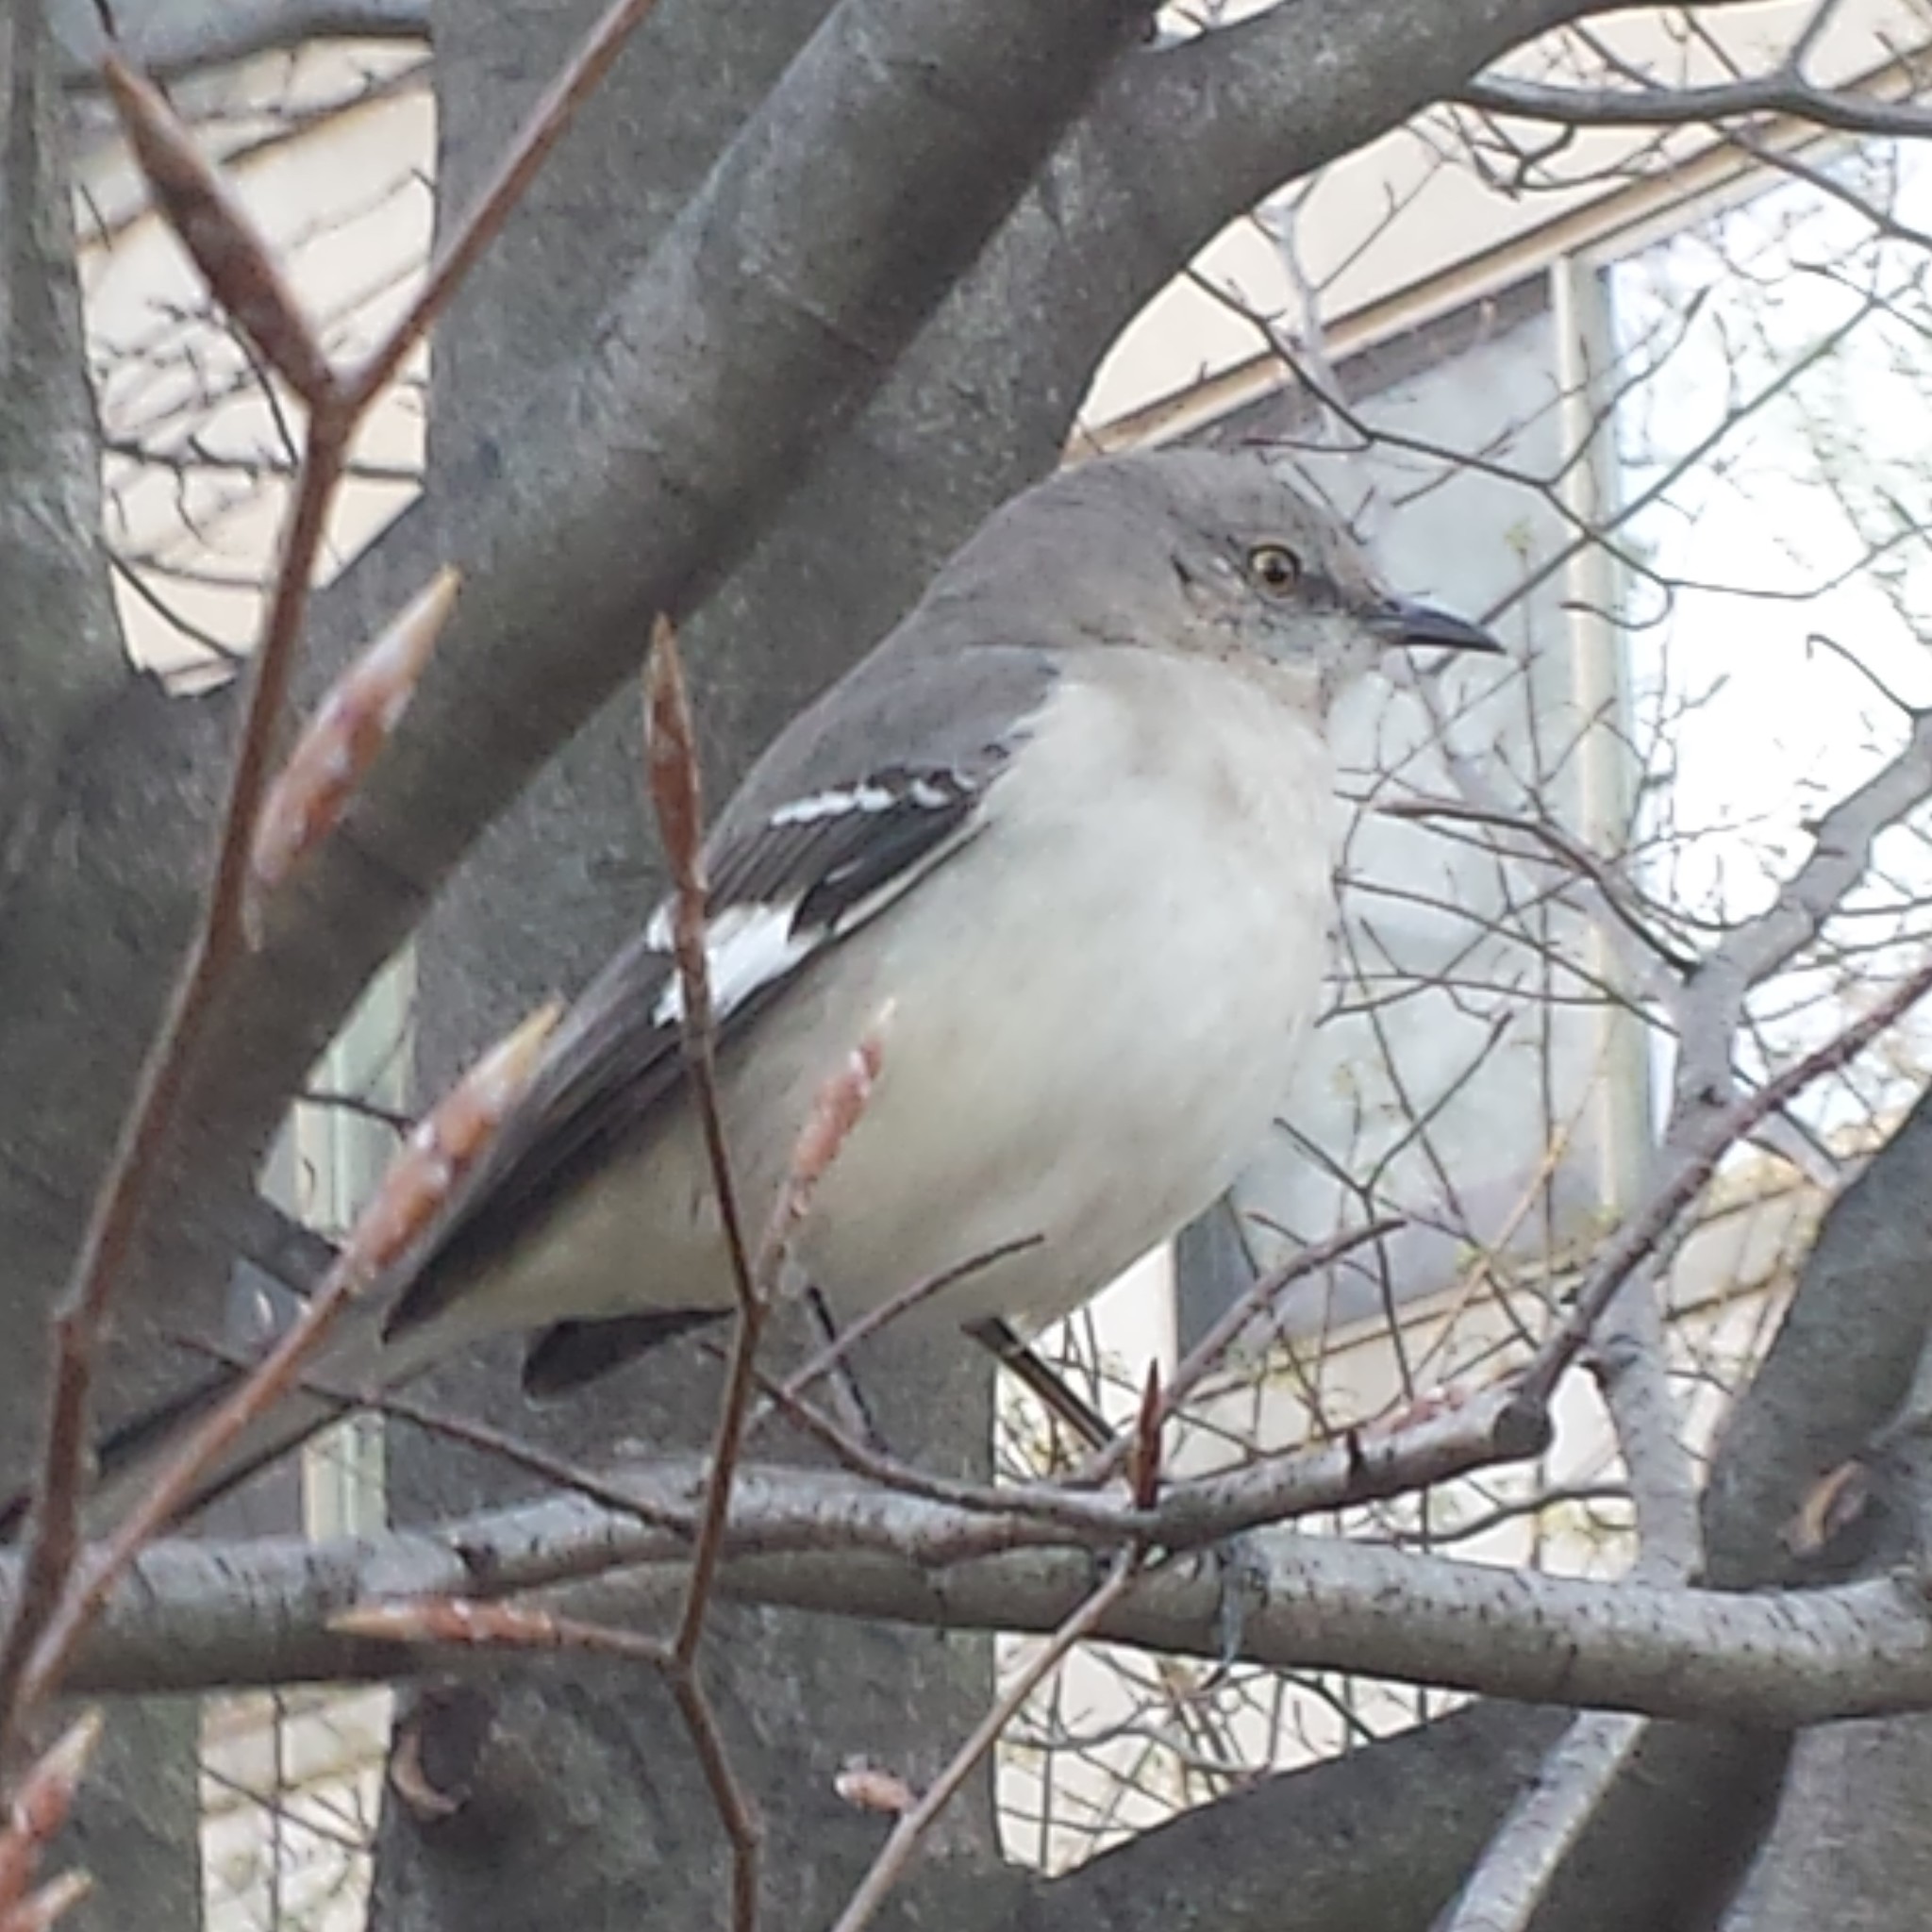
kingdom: Animalia
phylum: Chordata
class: Aves
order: Passeriformes
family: Mimidae
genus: Mimus
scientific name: Mimus polyglottos
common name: Northern mockingbird
